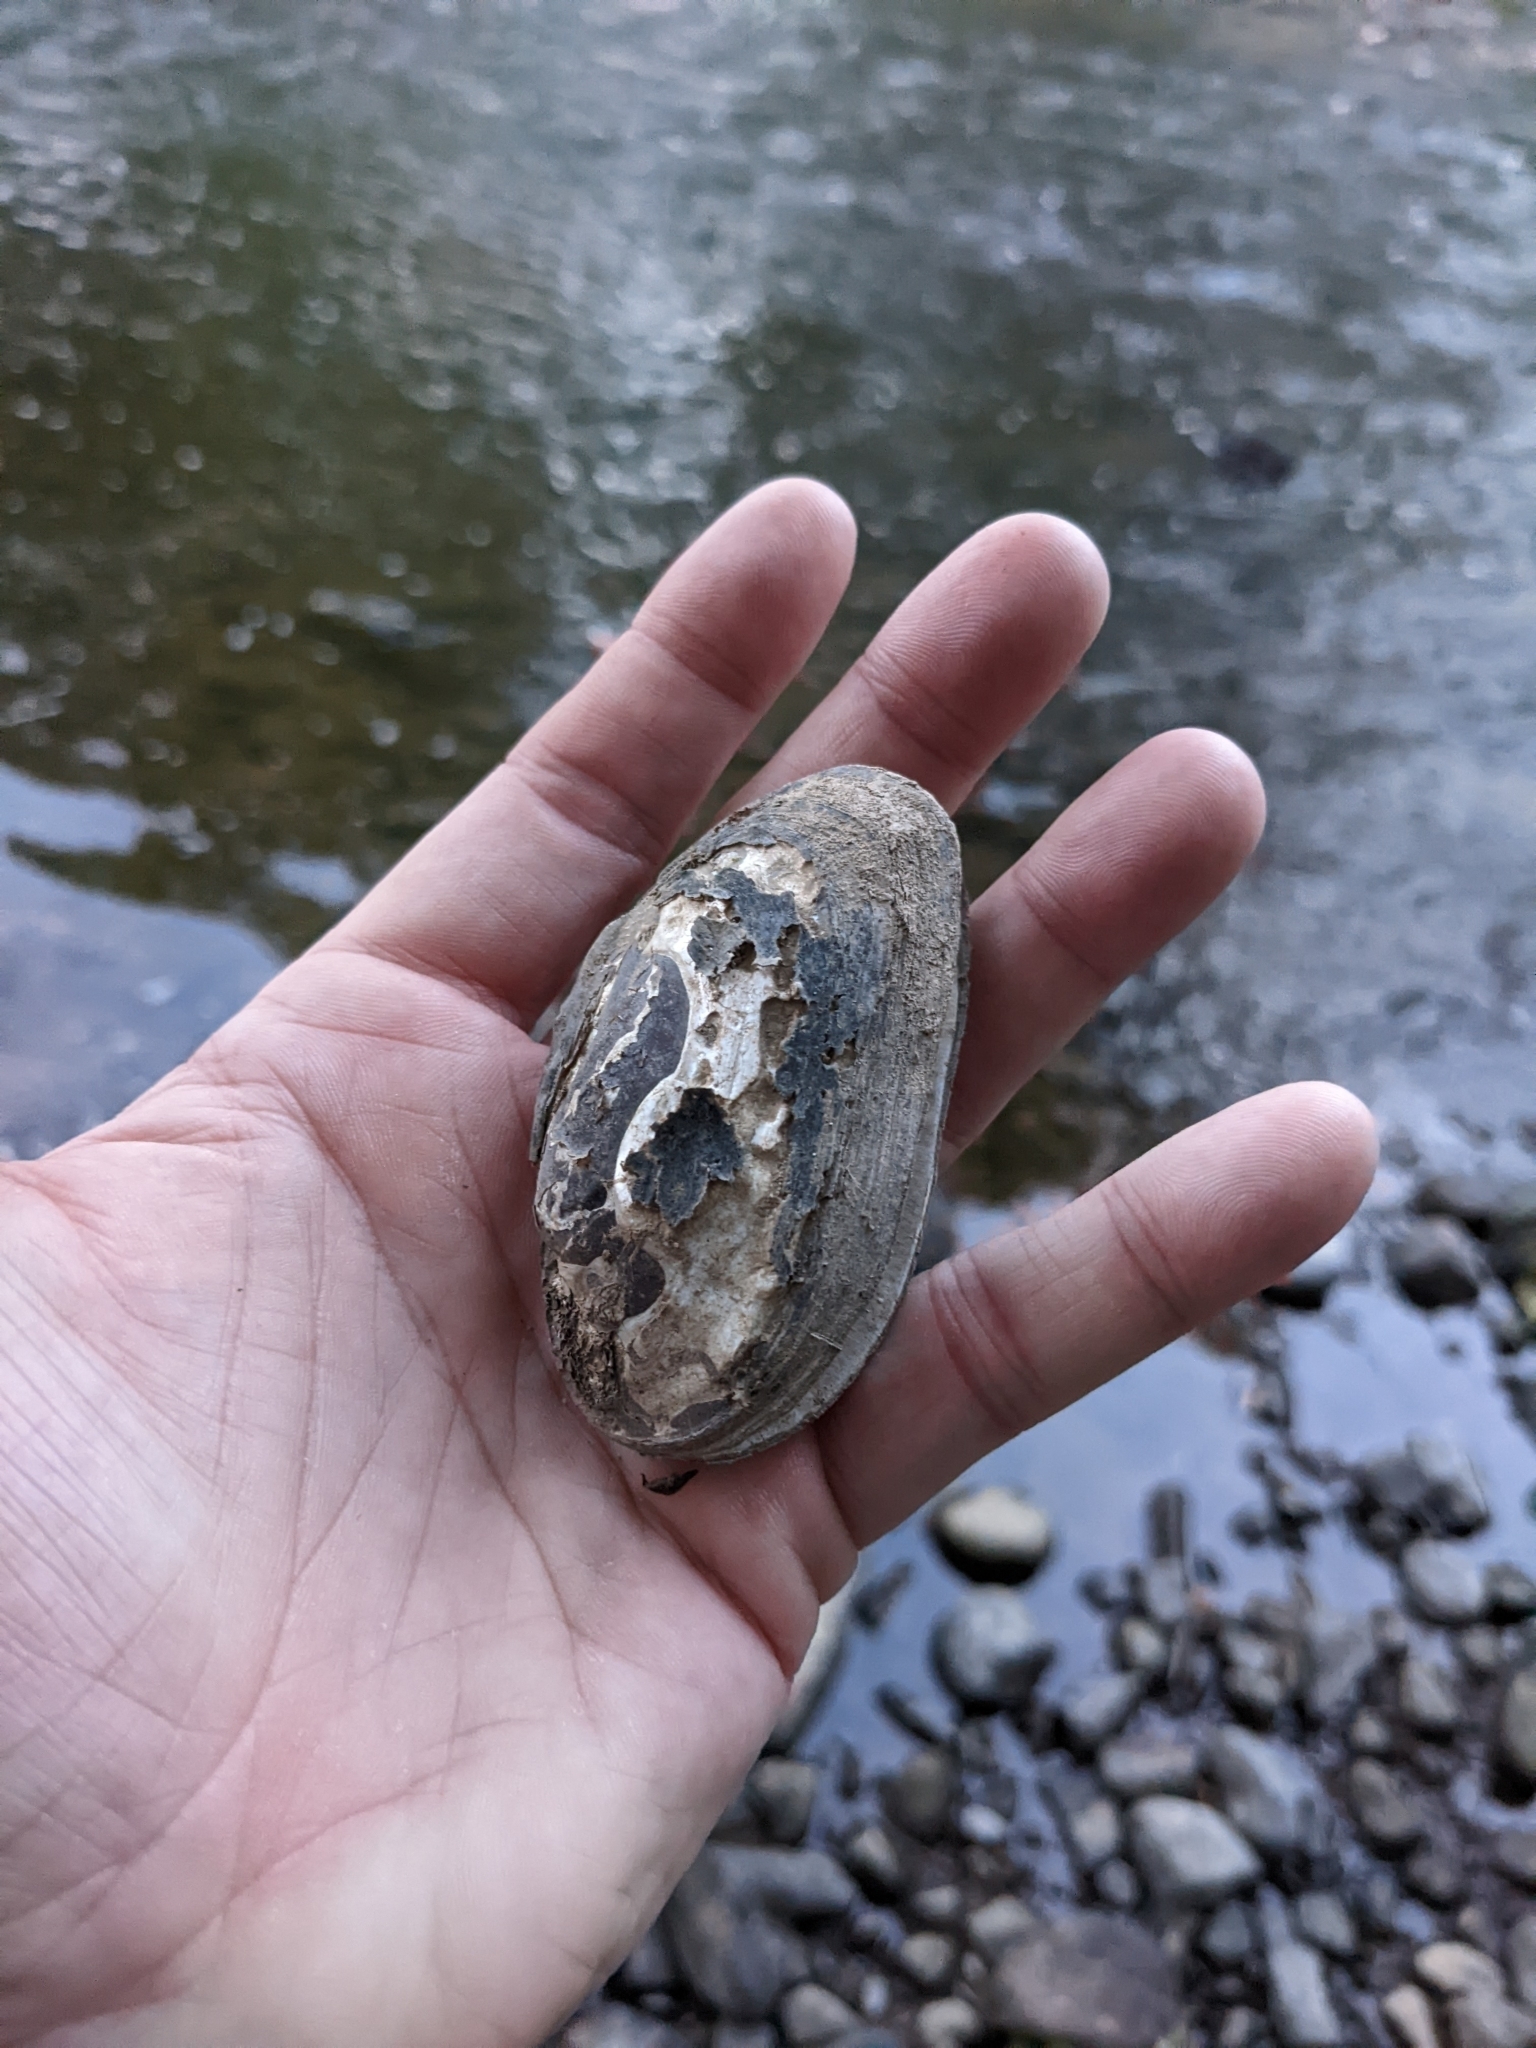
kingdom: Animalia
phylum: Mollusca
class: Bivalvia
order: Unionida
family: Unionidae
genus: Elliptio
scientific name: Elliptio complanata
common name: Eastern elliptio
